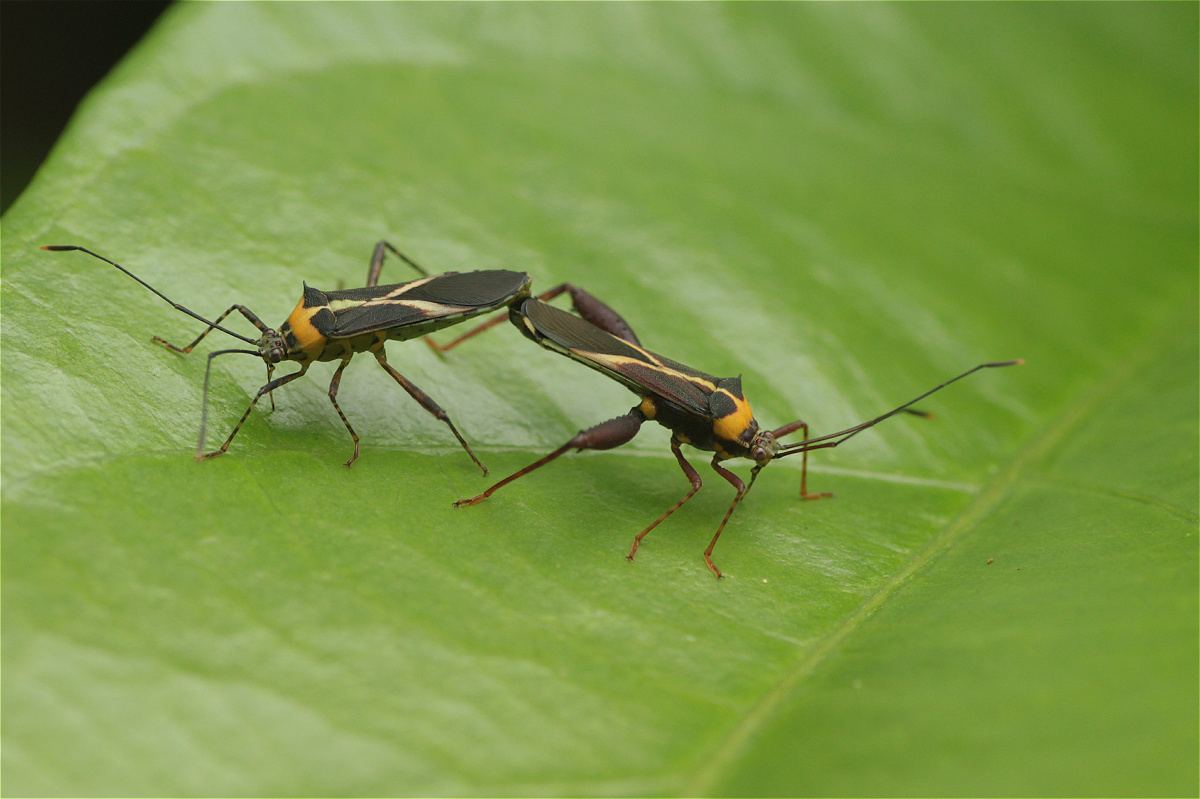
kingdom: Animalia
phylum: Arthropoda
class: Insecta
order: Hemiptera
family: Coreidae
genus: Zoreva
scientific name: Zoreva lacerna
